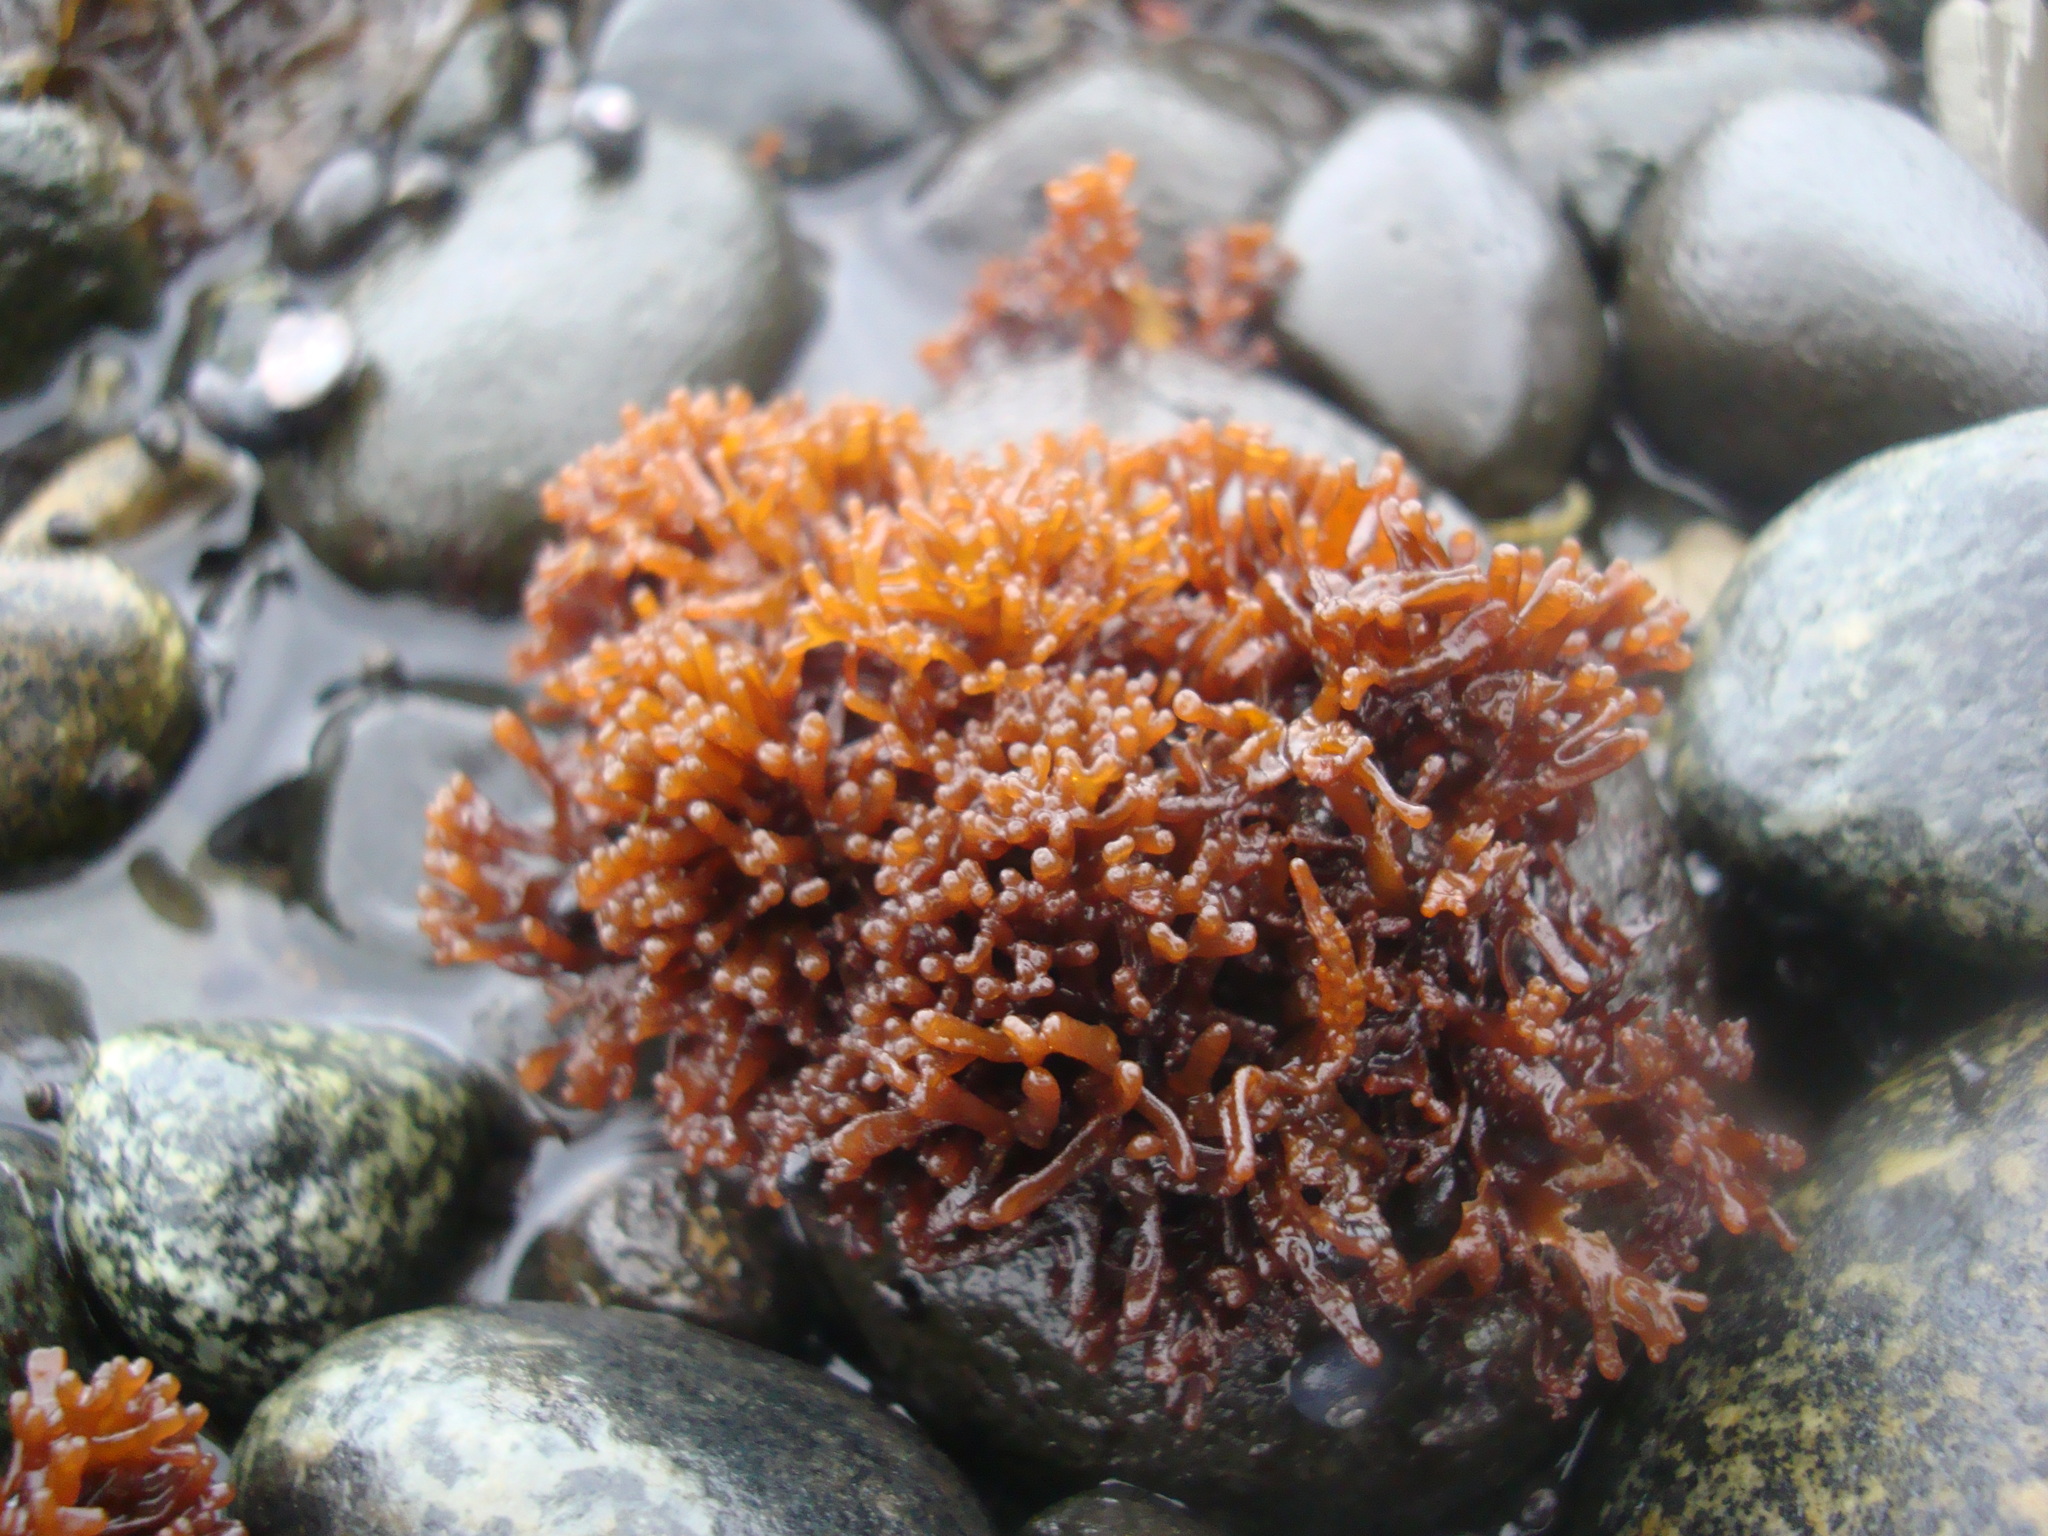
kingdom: Plantae
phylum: Rhodophyta
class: Florideophyceae
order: Nemaliales
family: Scinaiaceae
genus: Nothogenia
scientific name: Nothogenia fastigiata
